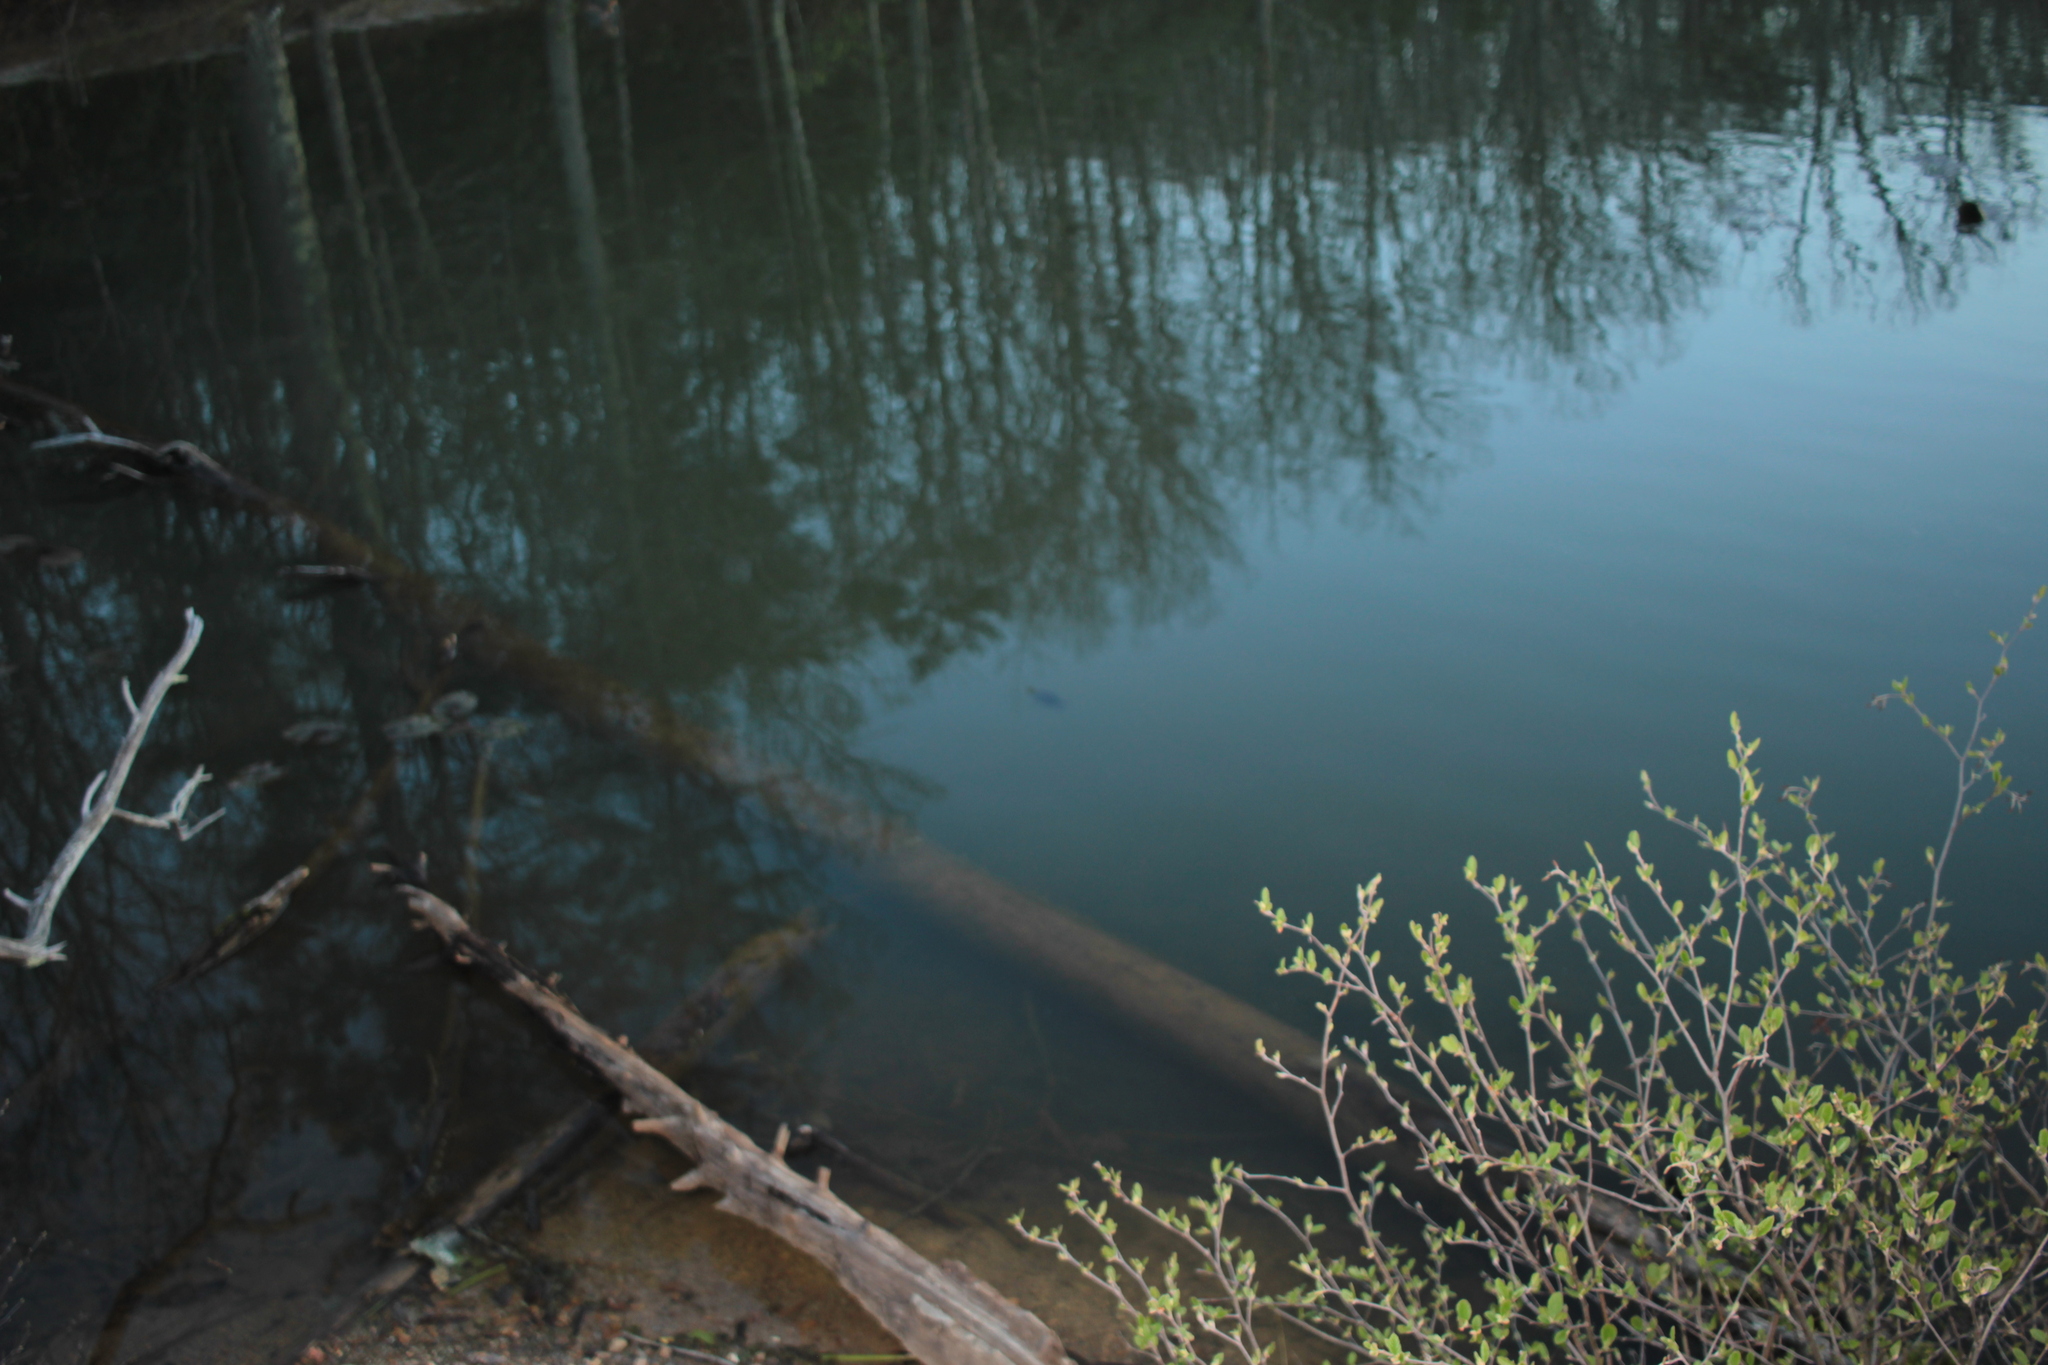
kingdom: Animalia
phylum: Chordata
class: Testudines
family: Emydidae
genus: Chrysemys
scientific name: Chrysemys picta
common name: Painted turtle
